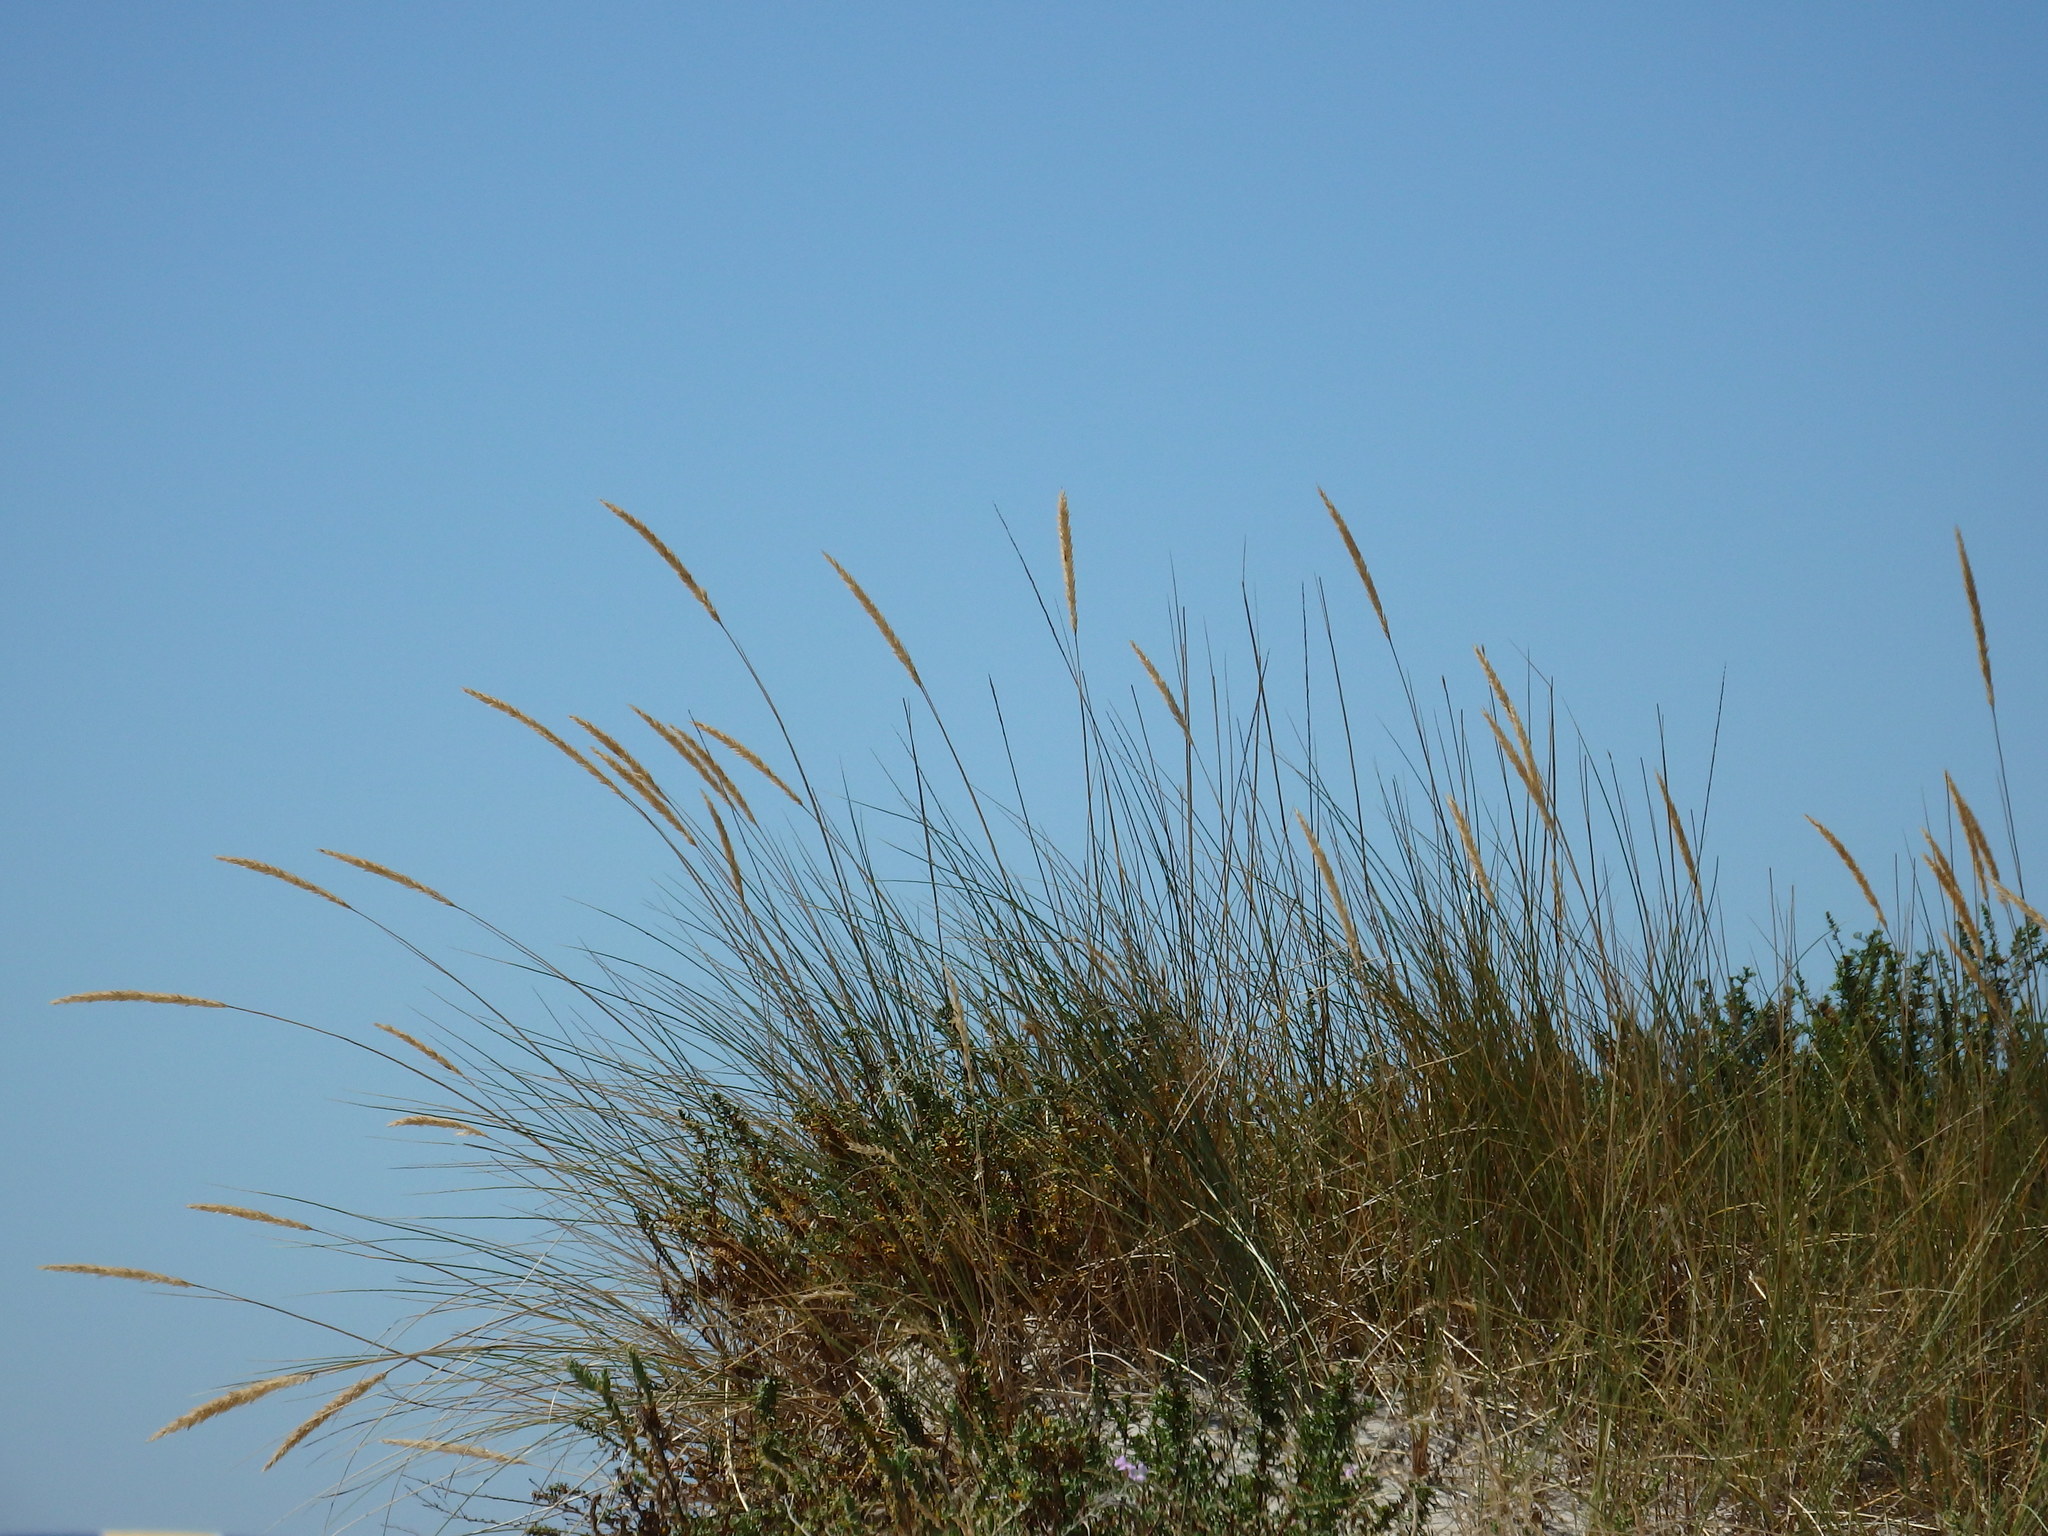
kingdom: Plantae
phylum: Tracheophyta
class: Liliopsida
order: Poales
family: Poaceae
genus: Calamagrostis
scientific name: Calamagrostis arenaria
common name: European beachgrass
